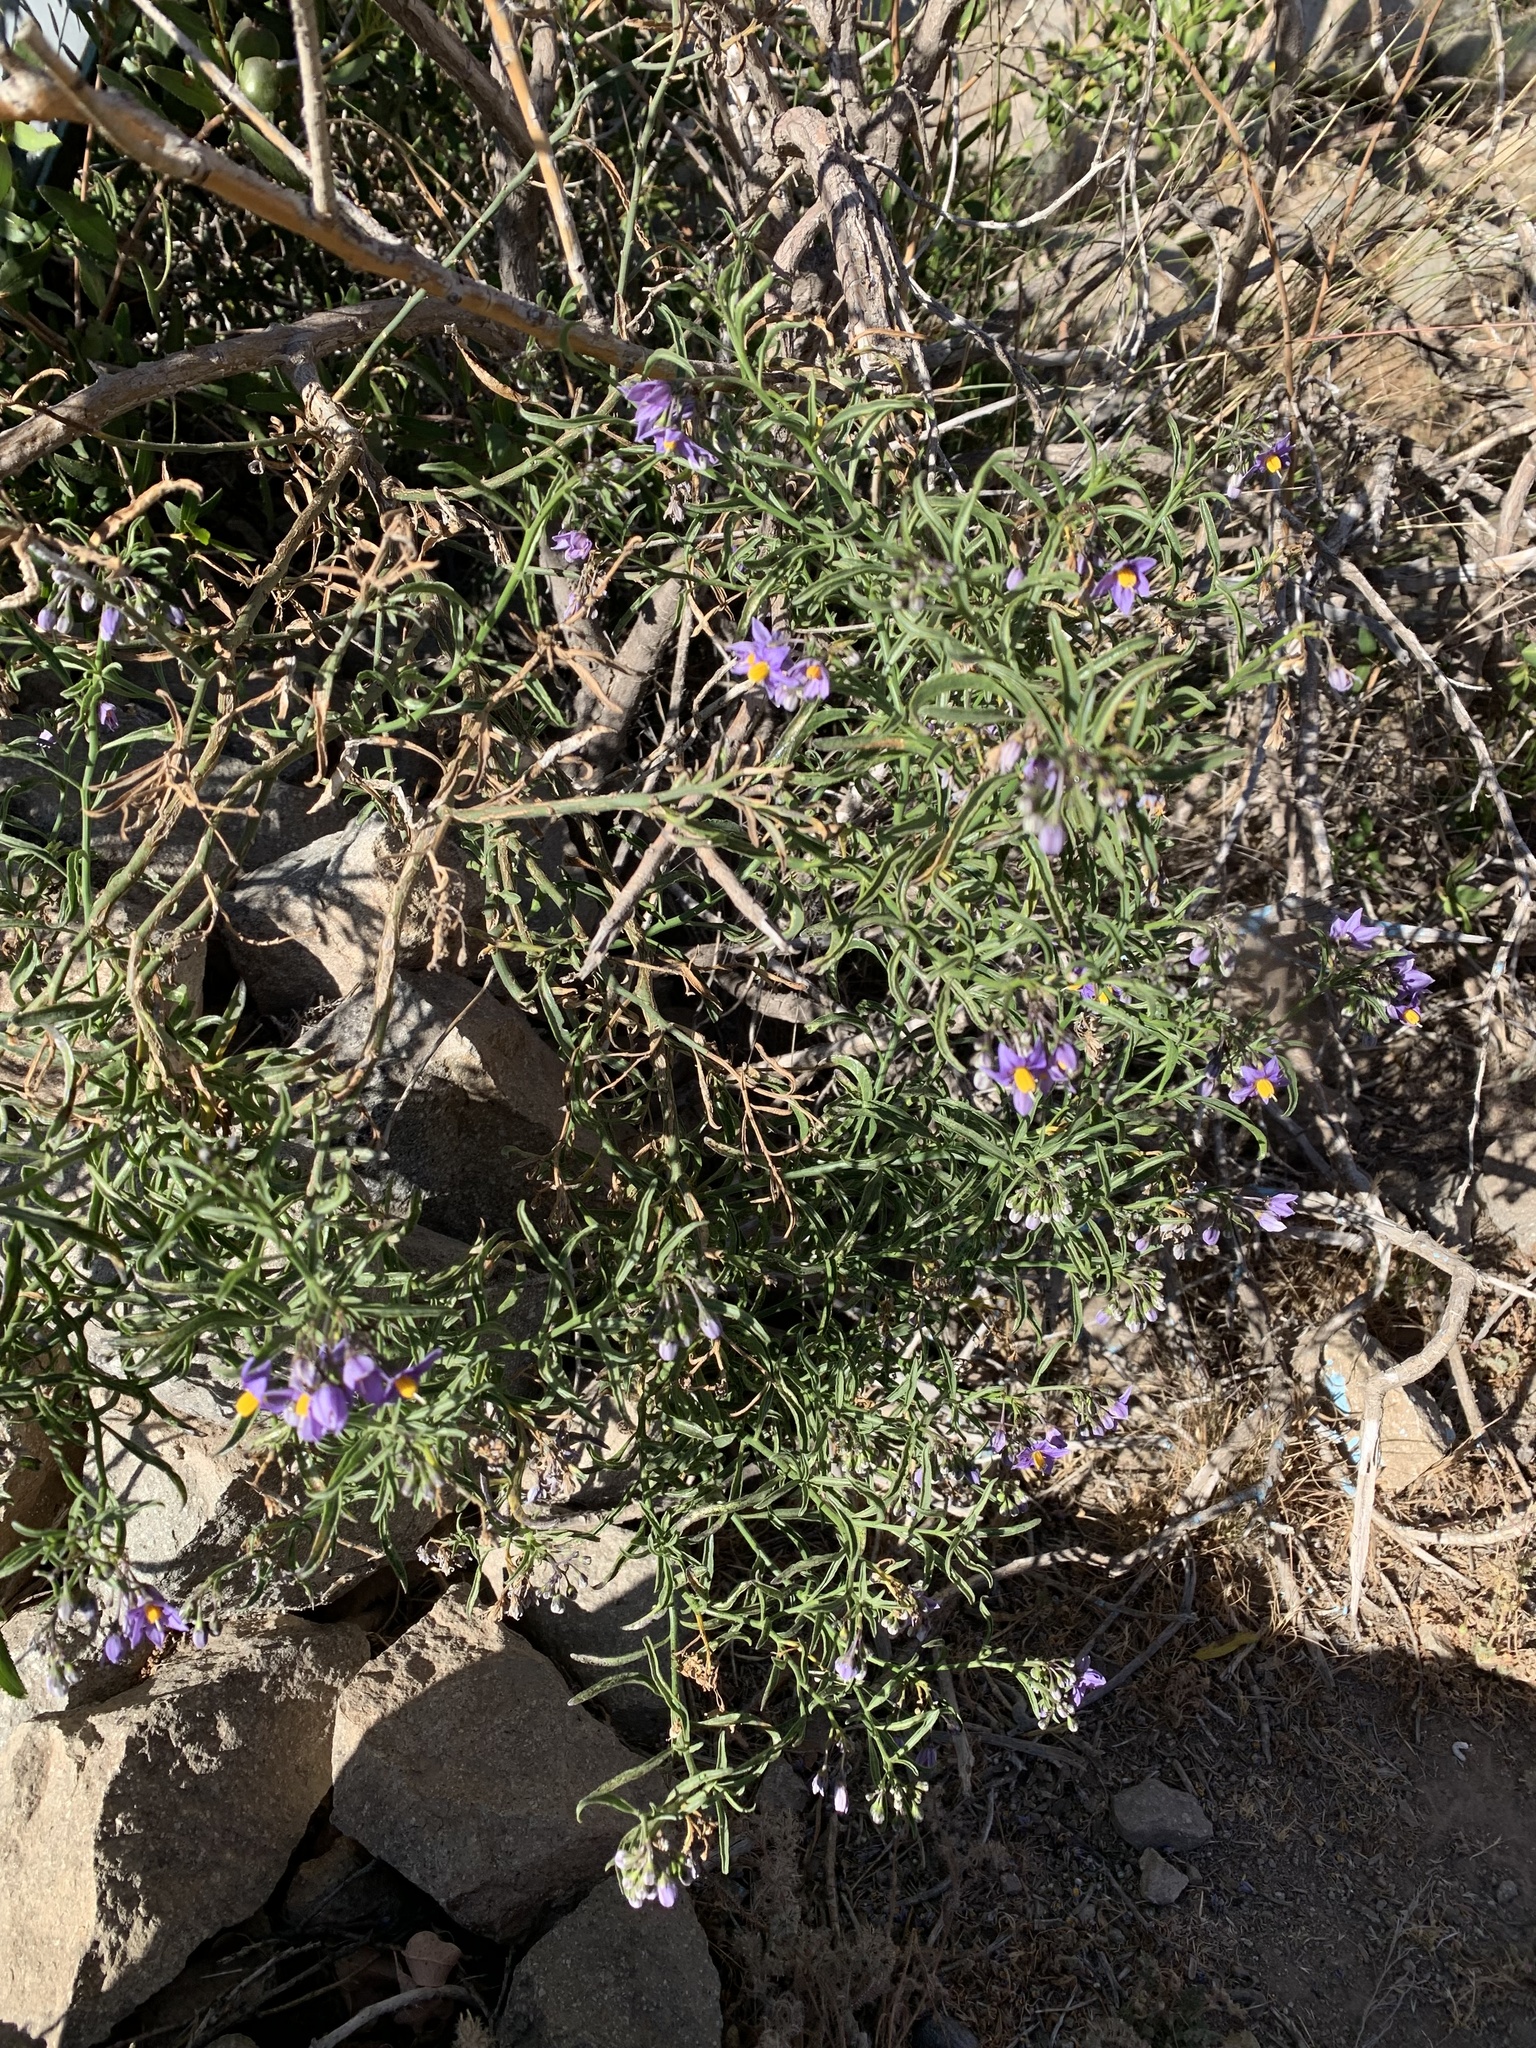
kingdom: Plantae
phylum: Tracheophyta
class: Magnoliopsida
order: Solanales
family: Solanaceae
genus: Solanum
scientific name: Solanum crispum
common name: Chilean nightshade
